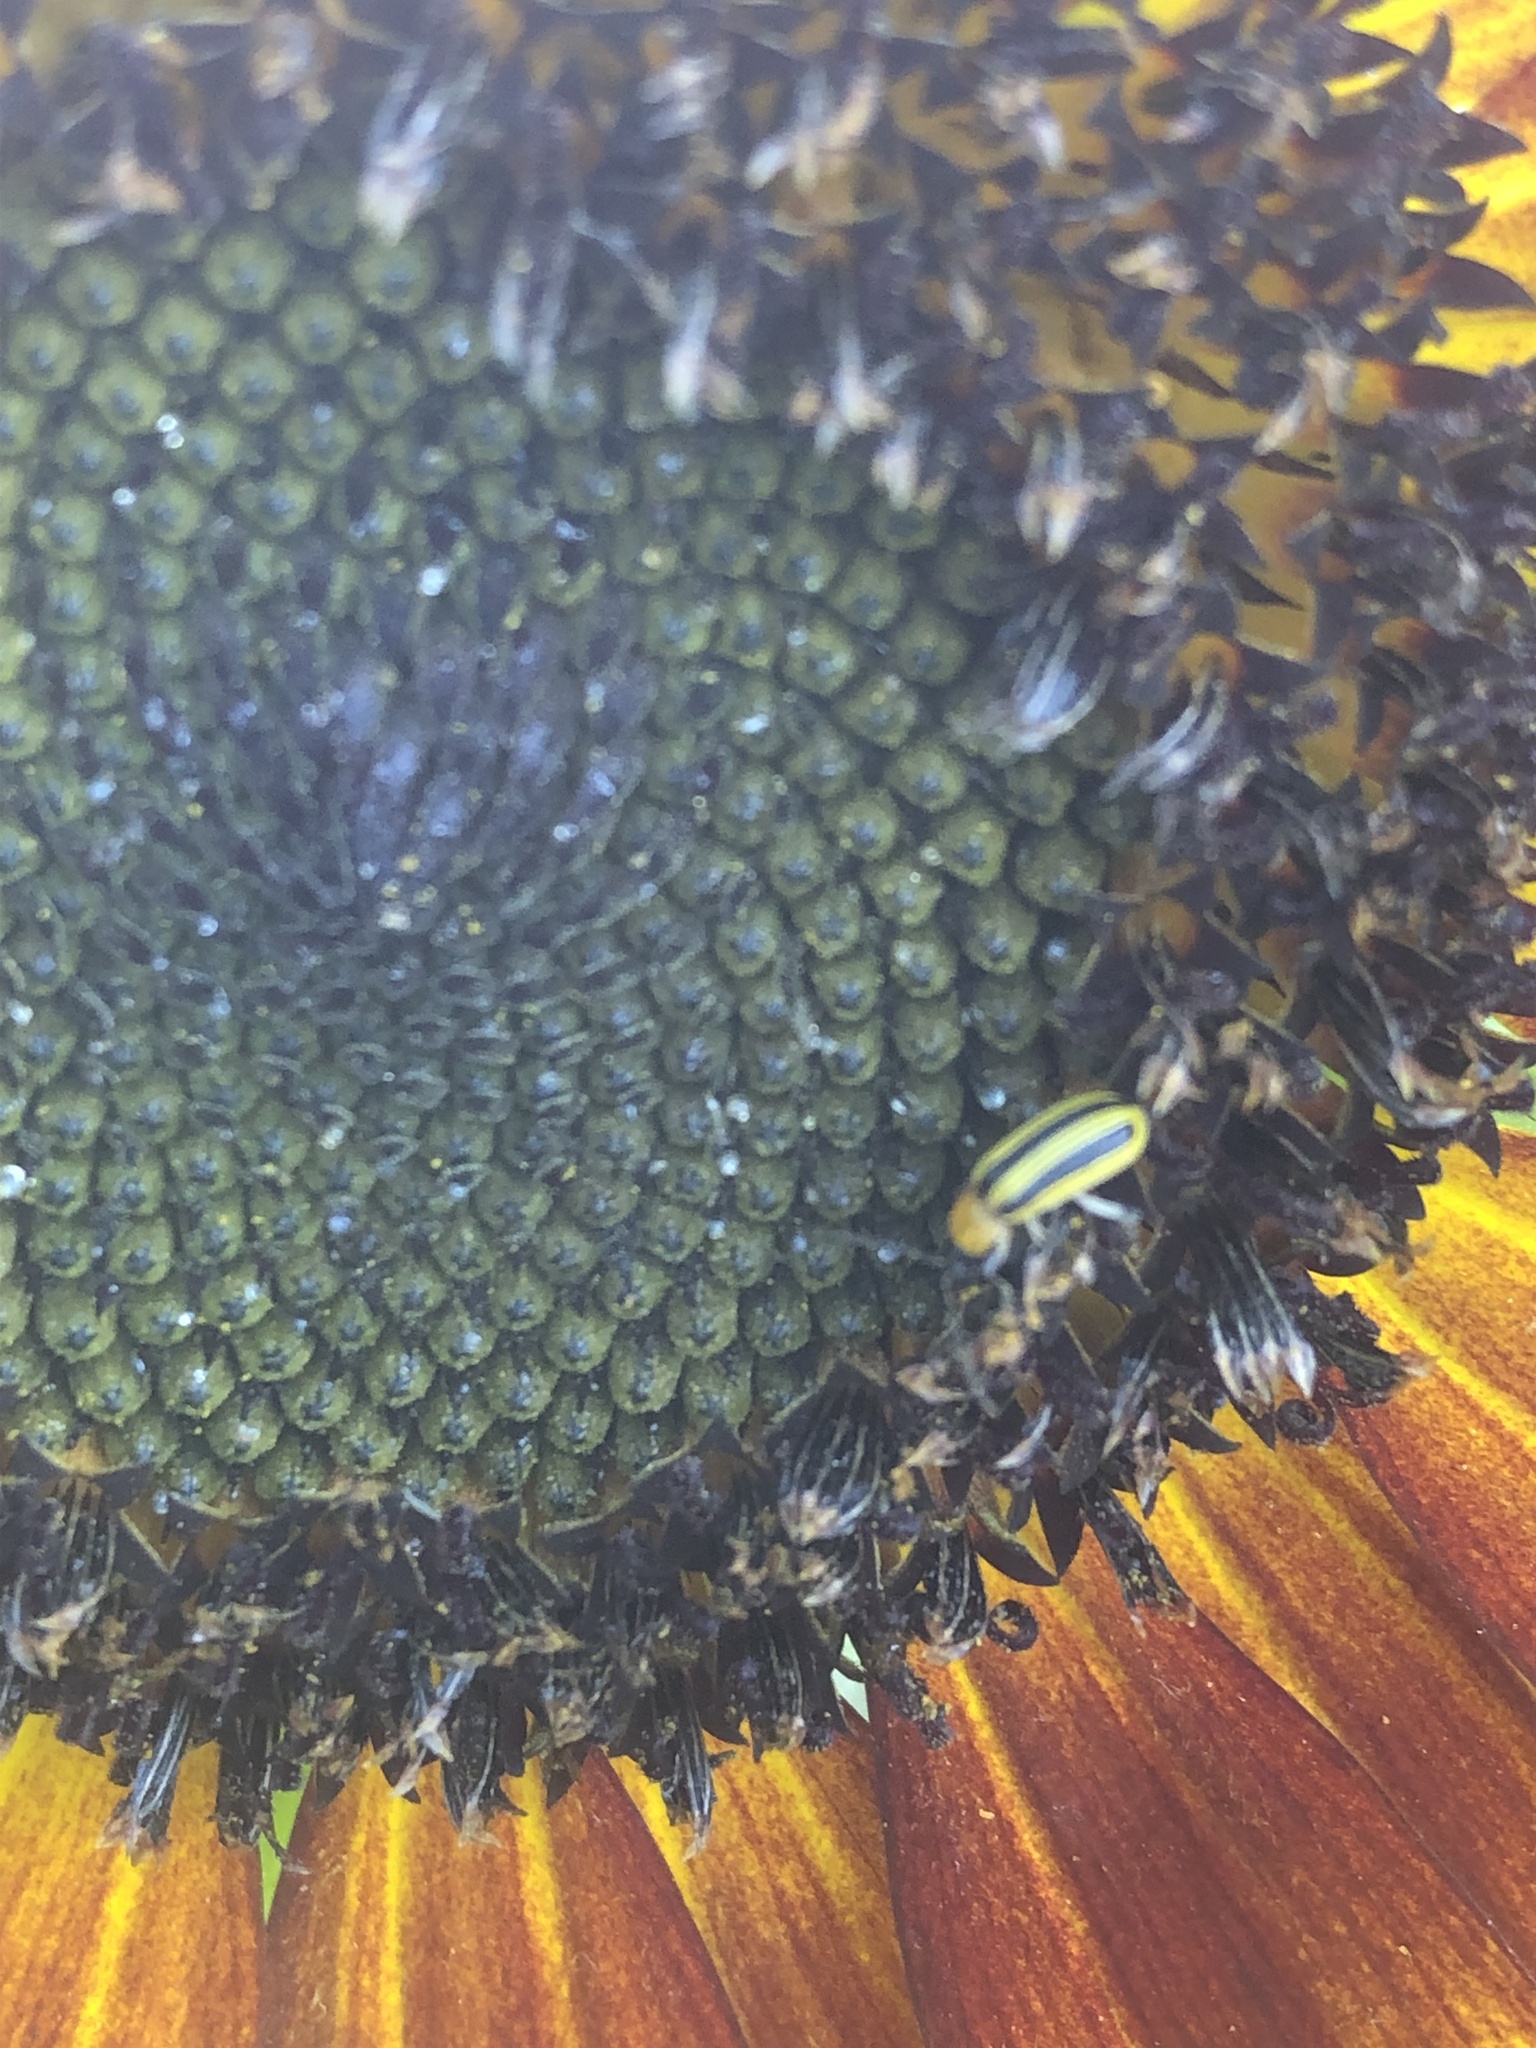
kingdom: Animalia
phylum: Arthropoda
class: Insecta
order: Coleoptera
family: Chrysomelidae
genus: Acalymma
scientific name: Acalymma vittatum
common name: Striped cucumber beetle
